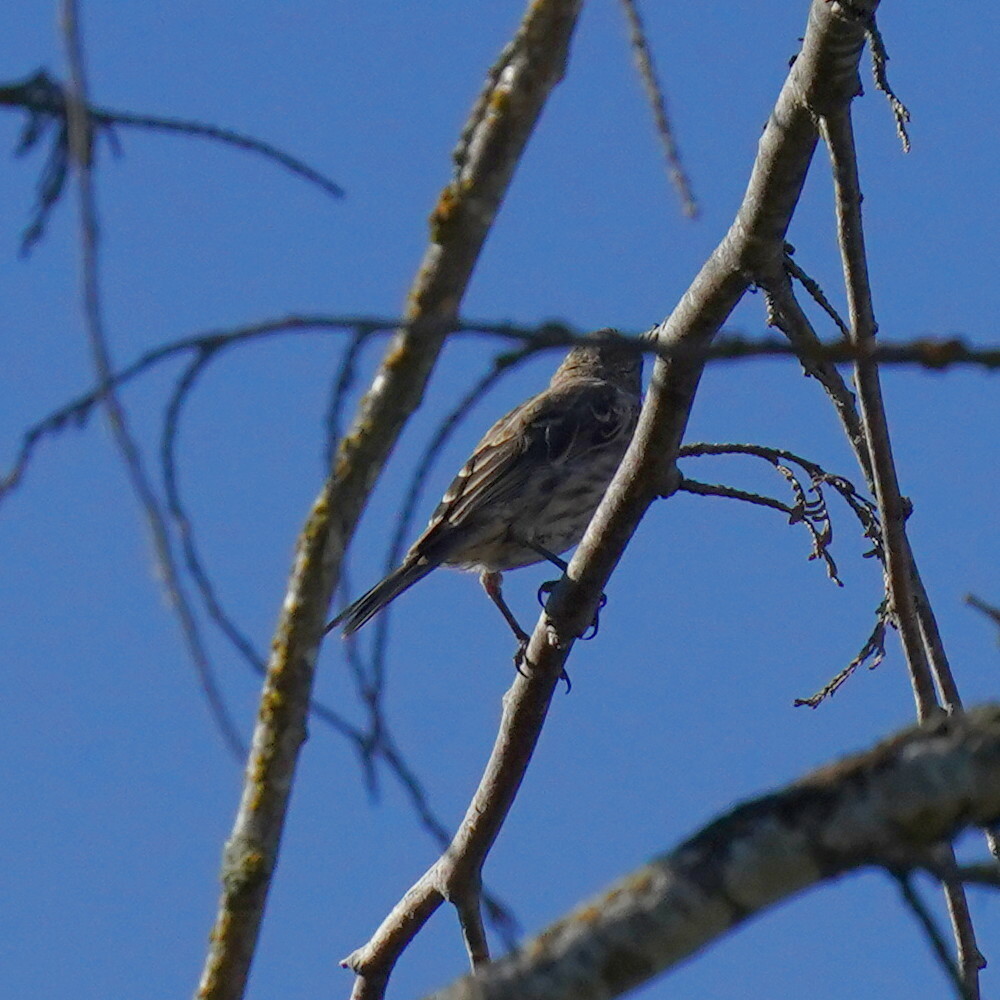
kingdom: Animalia
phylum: Chordata
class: Aves
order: Passeriformes
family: Fringillidae
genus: Haemorhous
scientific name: Haemorhous mexicanus
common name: House finch
